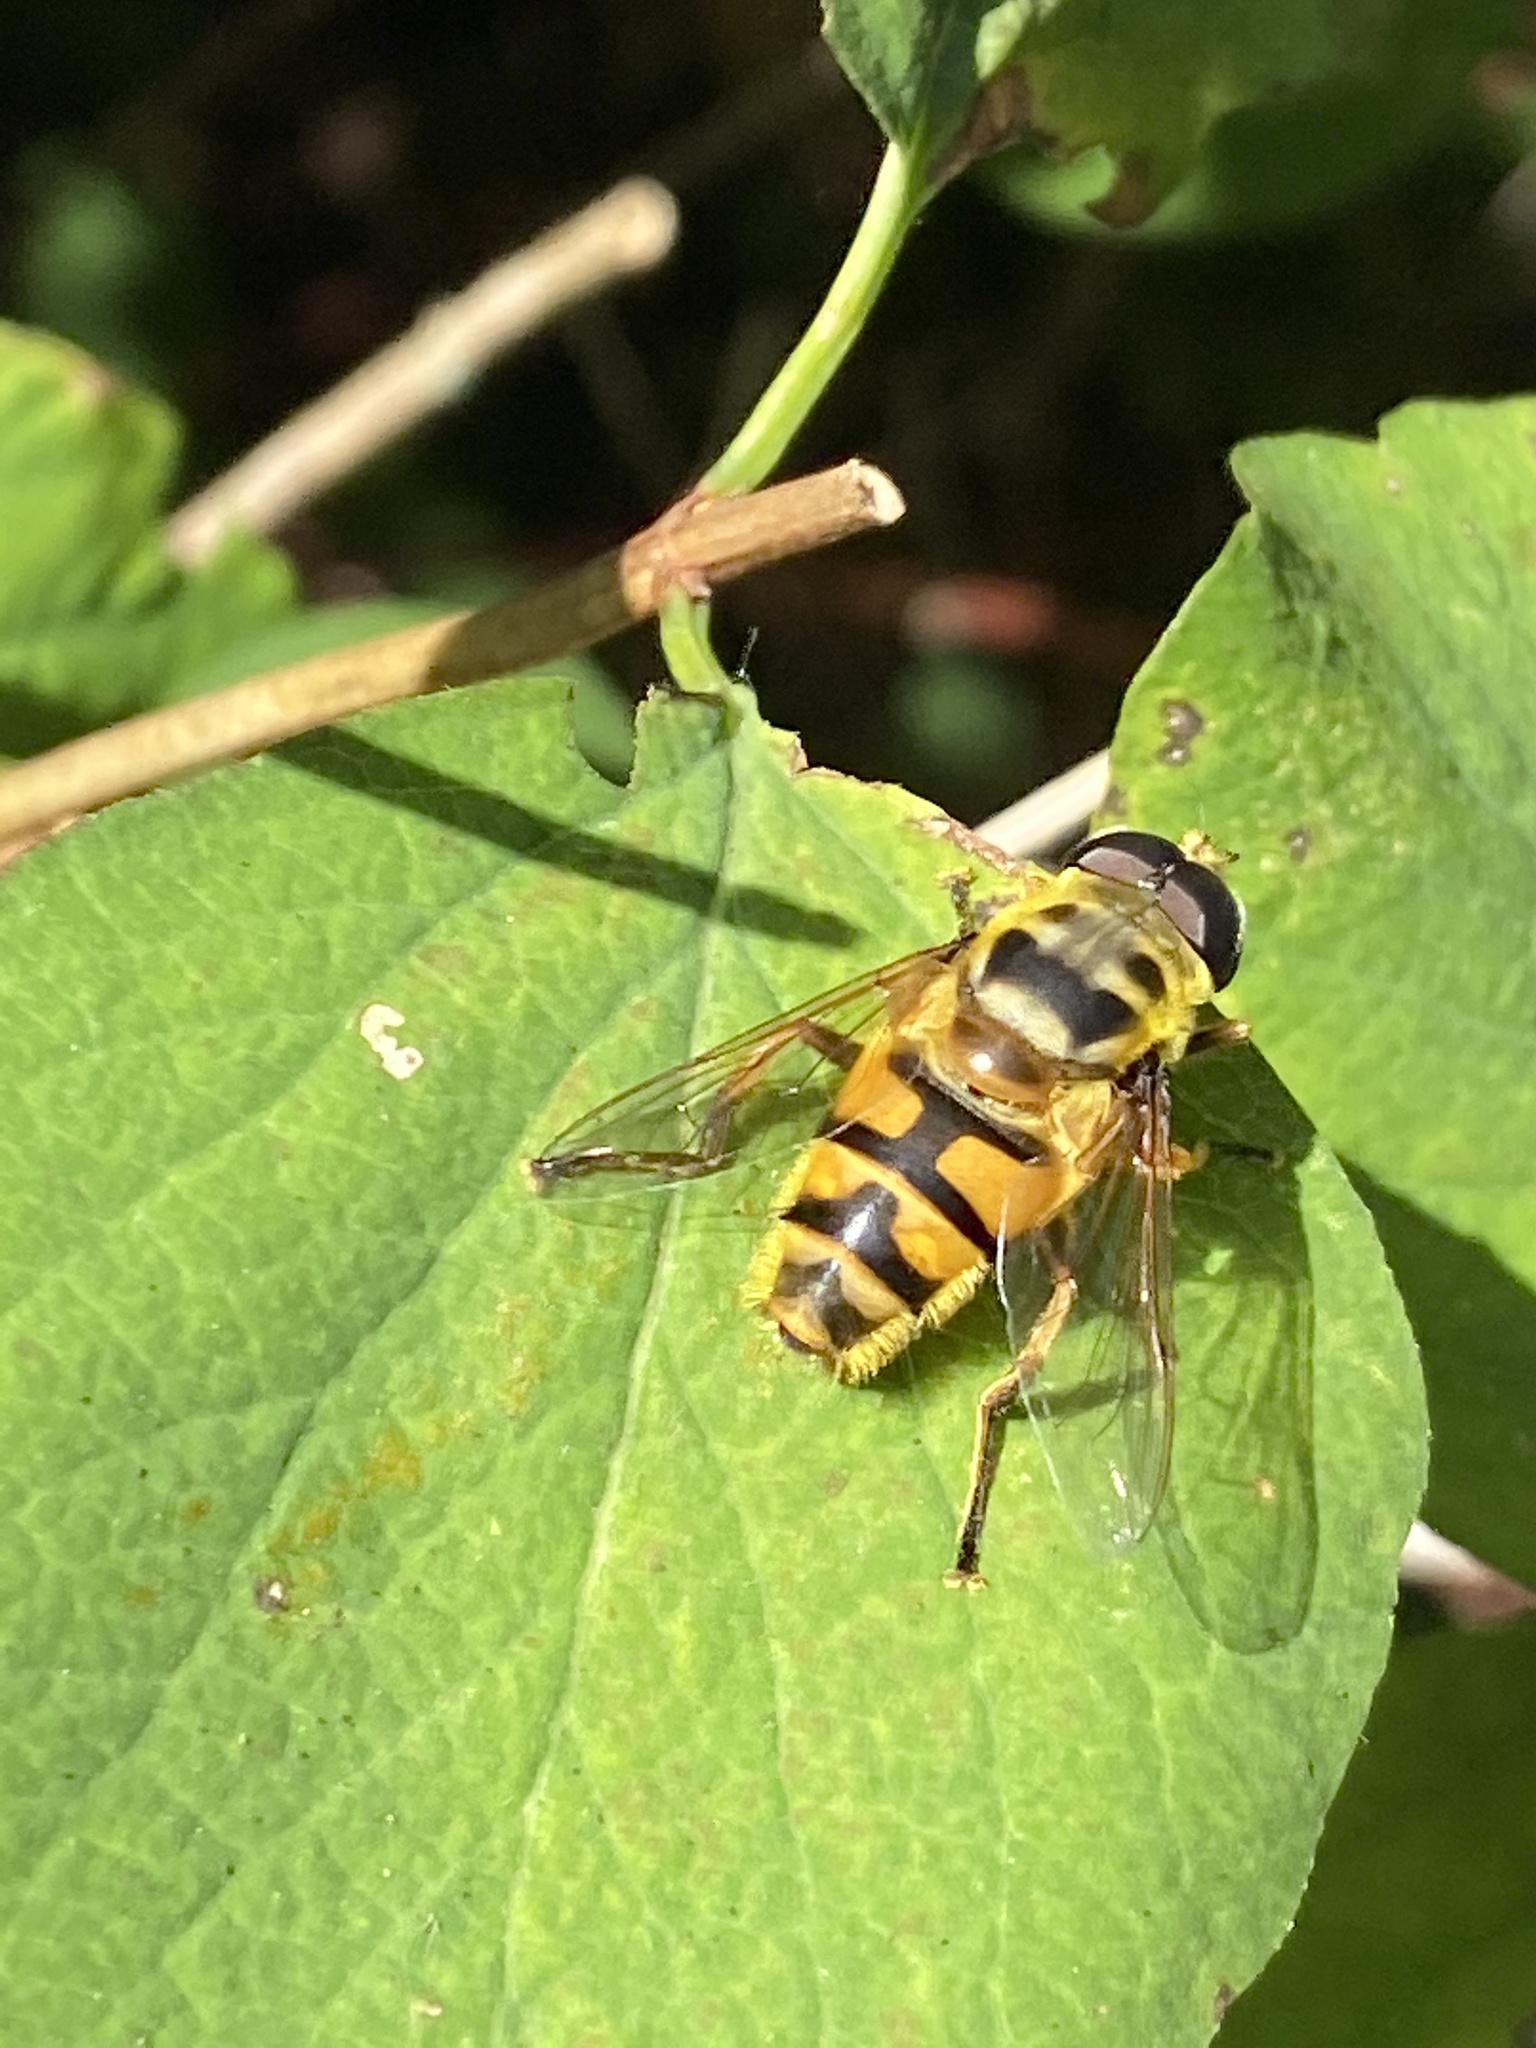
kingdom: Animalia
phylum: Arthropoda
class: Insecta
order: Diptera
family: Syrphidae
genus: Myathropa
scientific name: Myathropa florea
